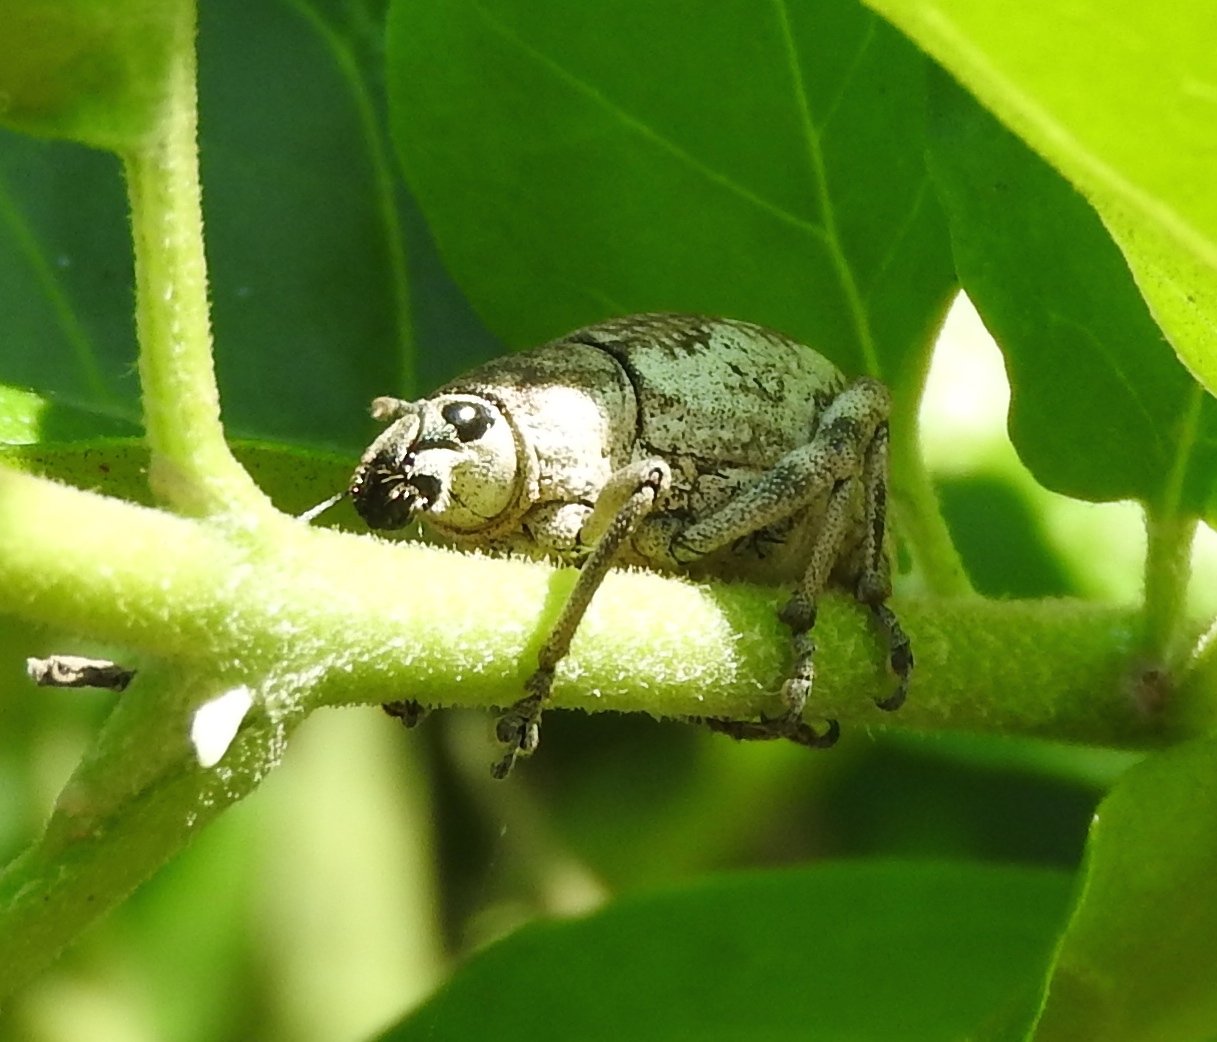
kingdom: Animalia
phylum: Arthropoda
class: Insecta
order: Coleoptera
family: Curculionidae
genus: Epicaerus
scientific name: Epicaerus
